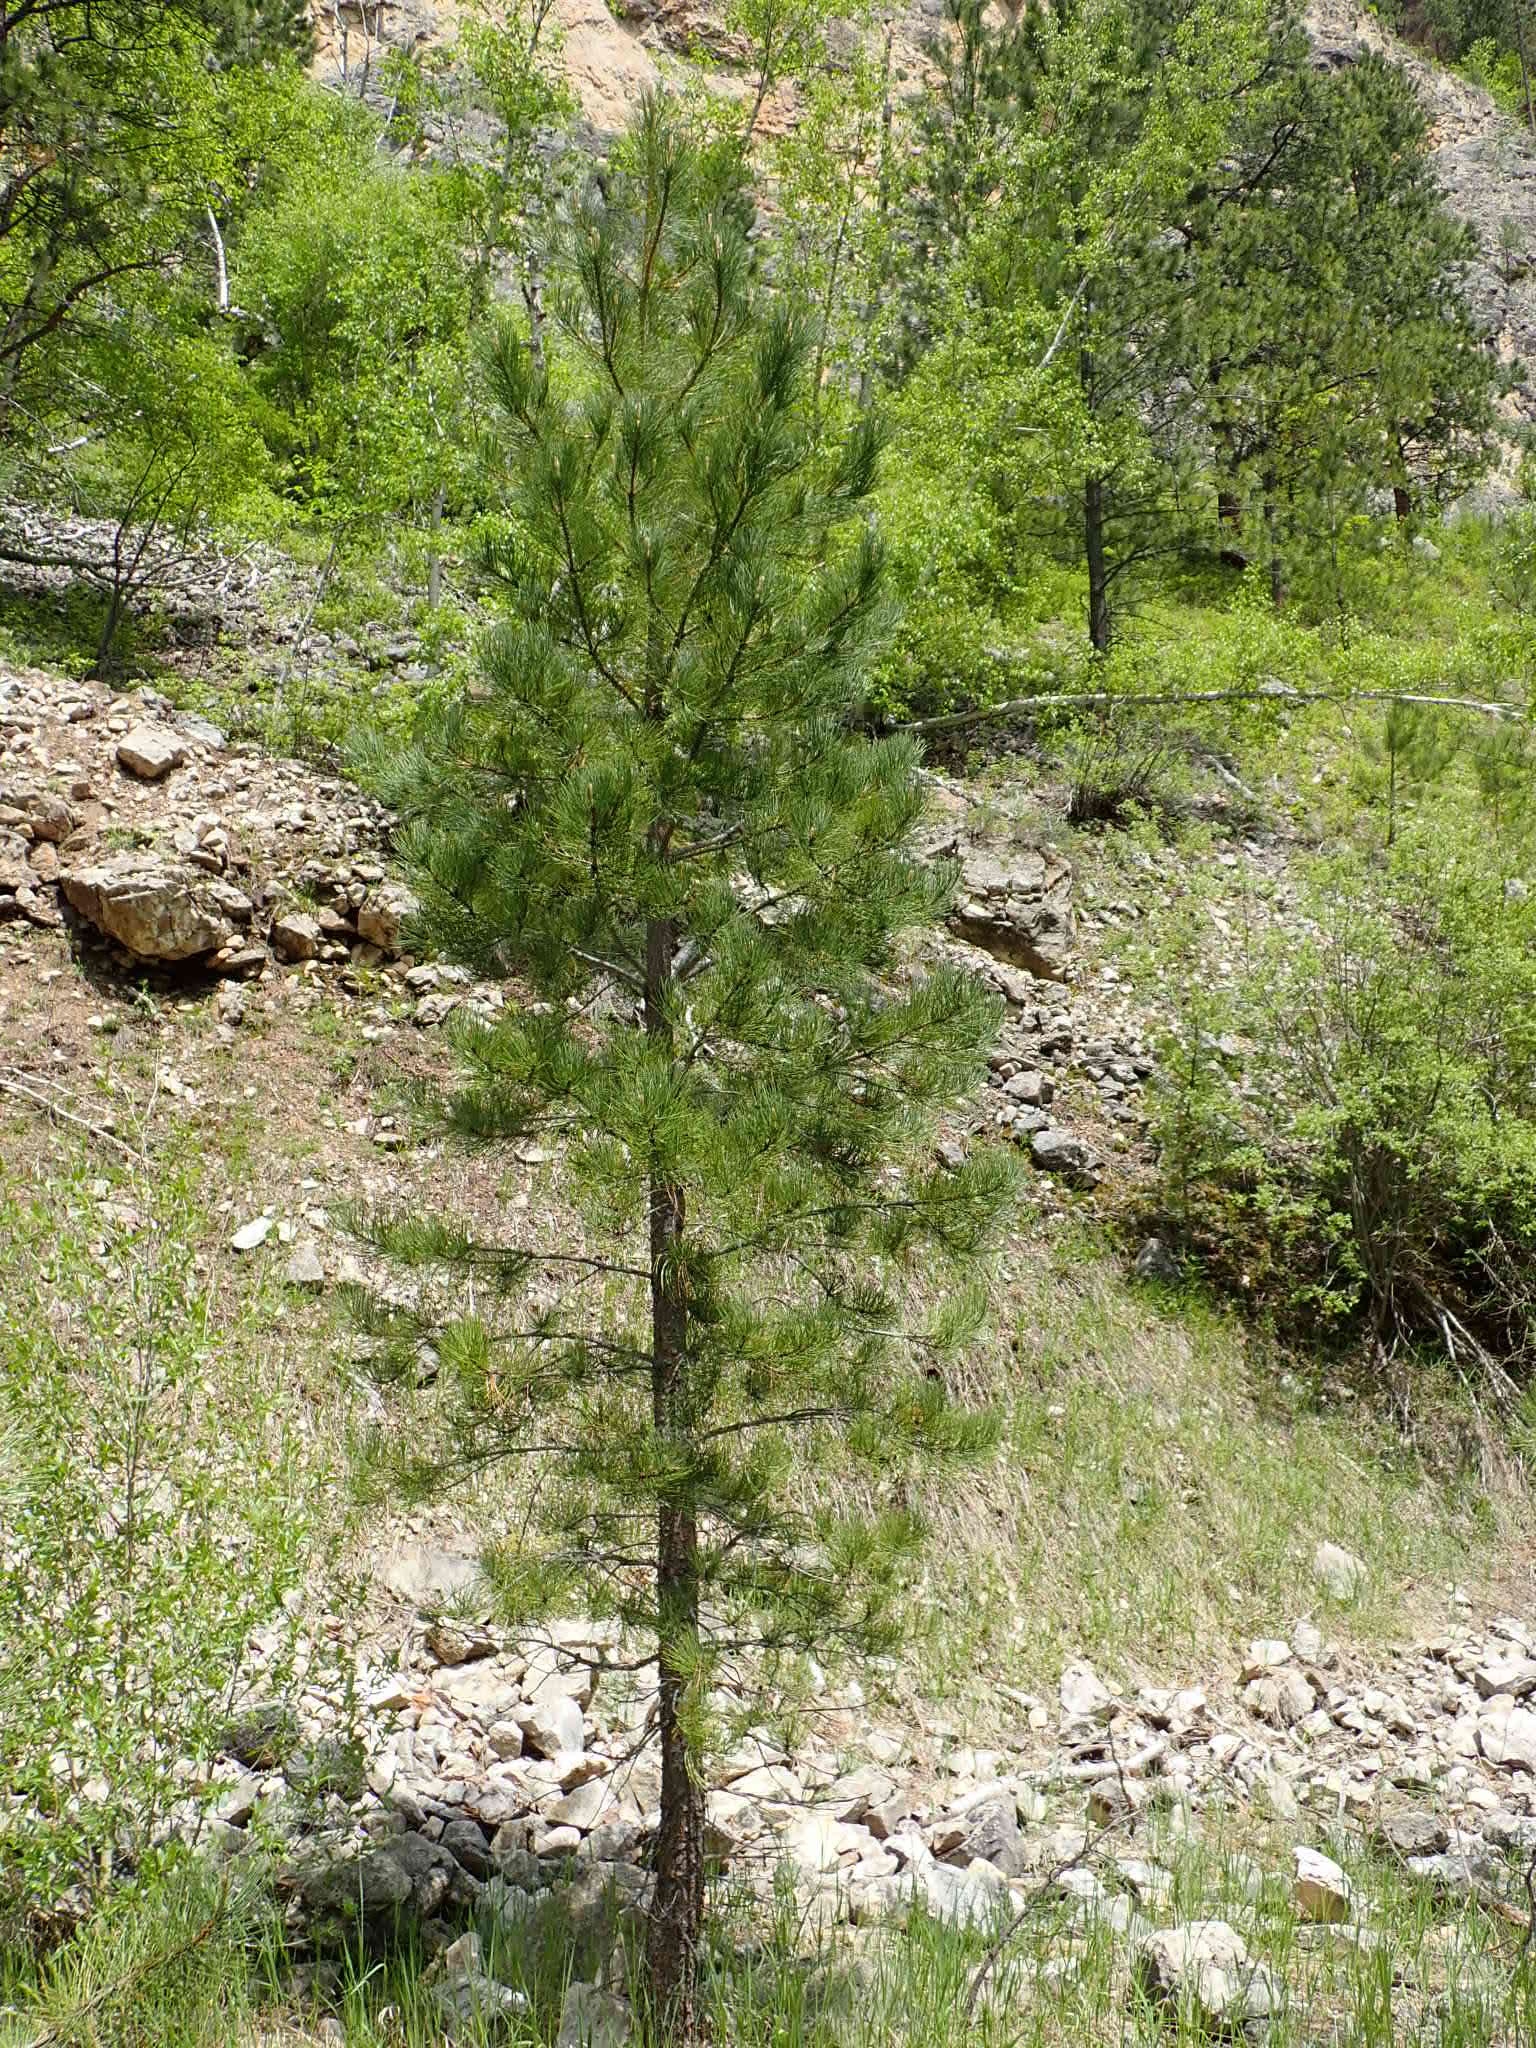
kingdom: Plantae
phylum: Tracheophyta
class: Pinopsida
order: Pinales
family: Pinaceae
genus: Pinus
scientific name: Pinus ponderosa
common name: Western yellow-pine
